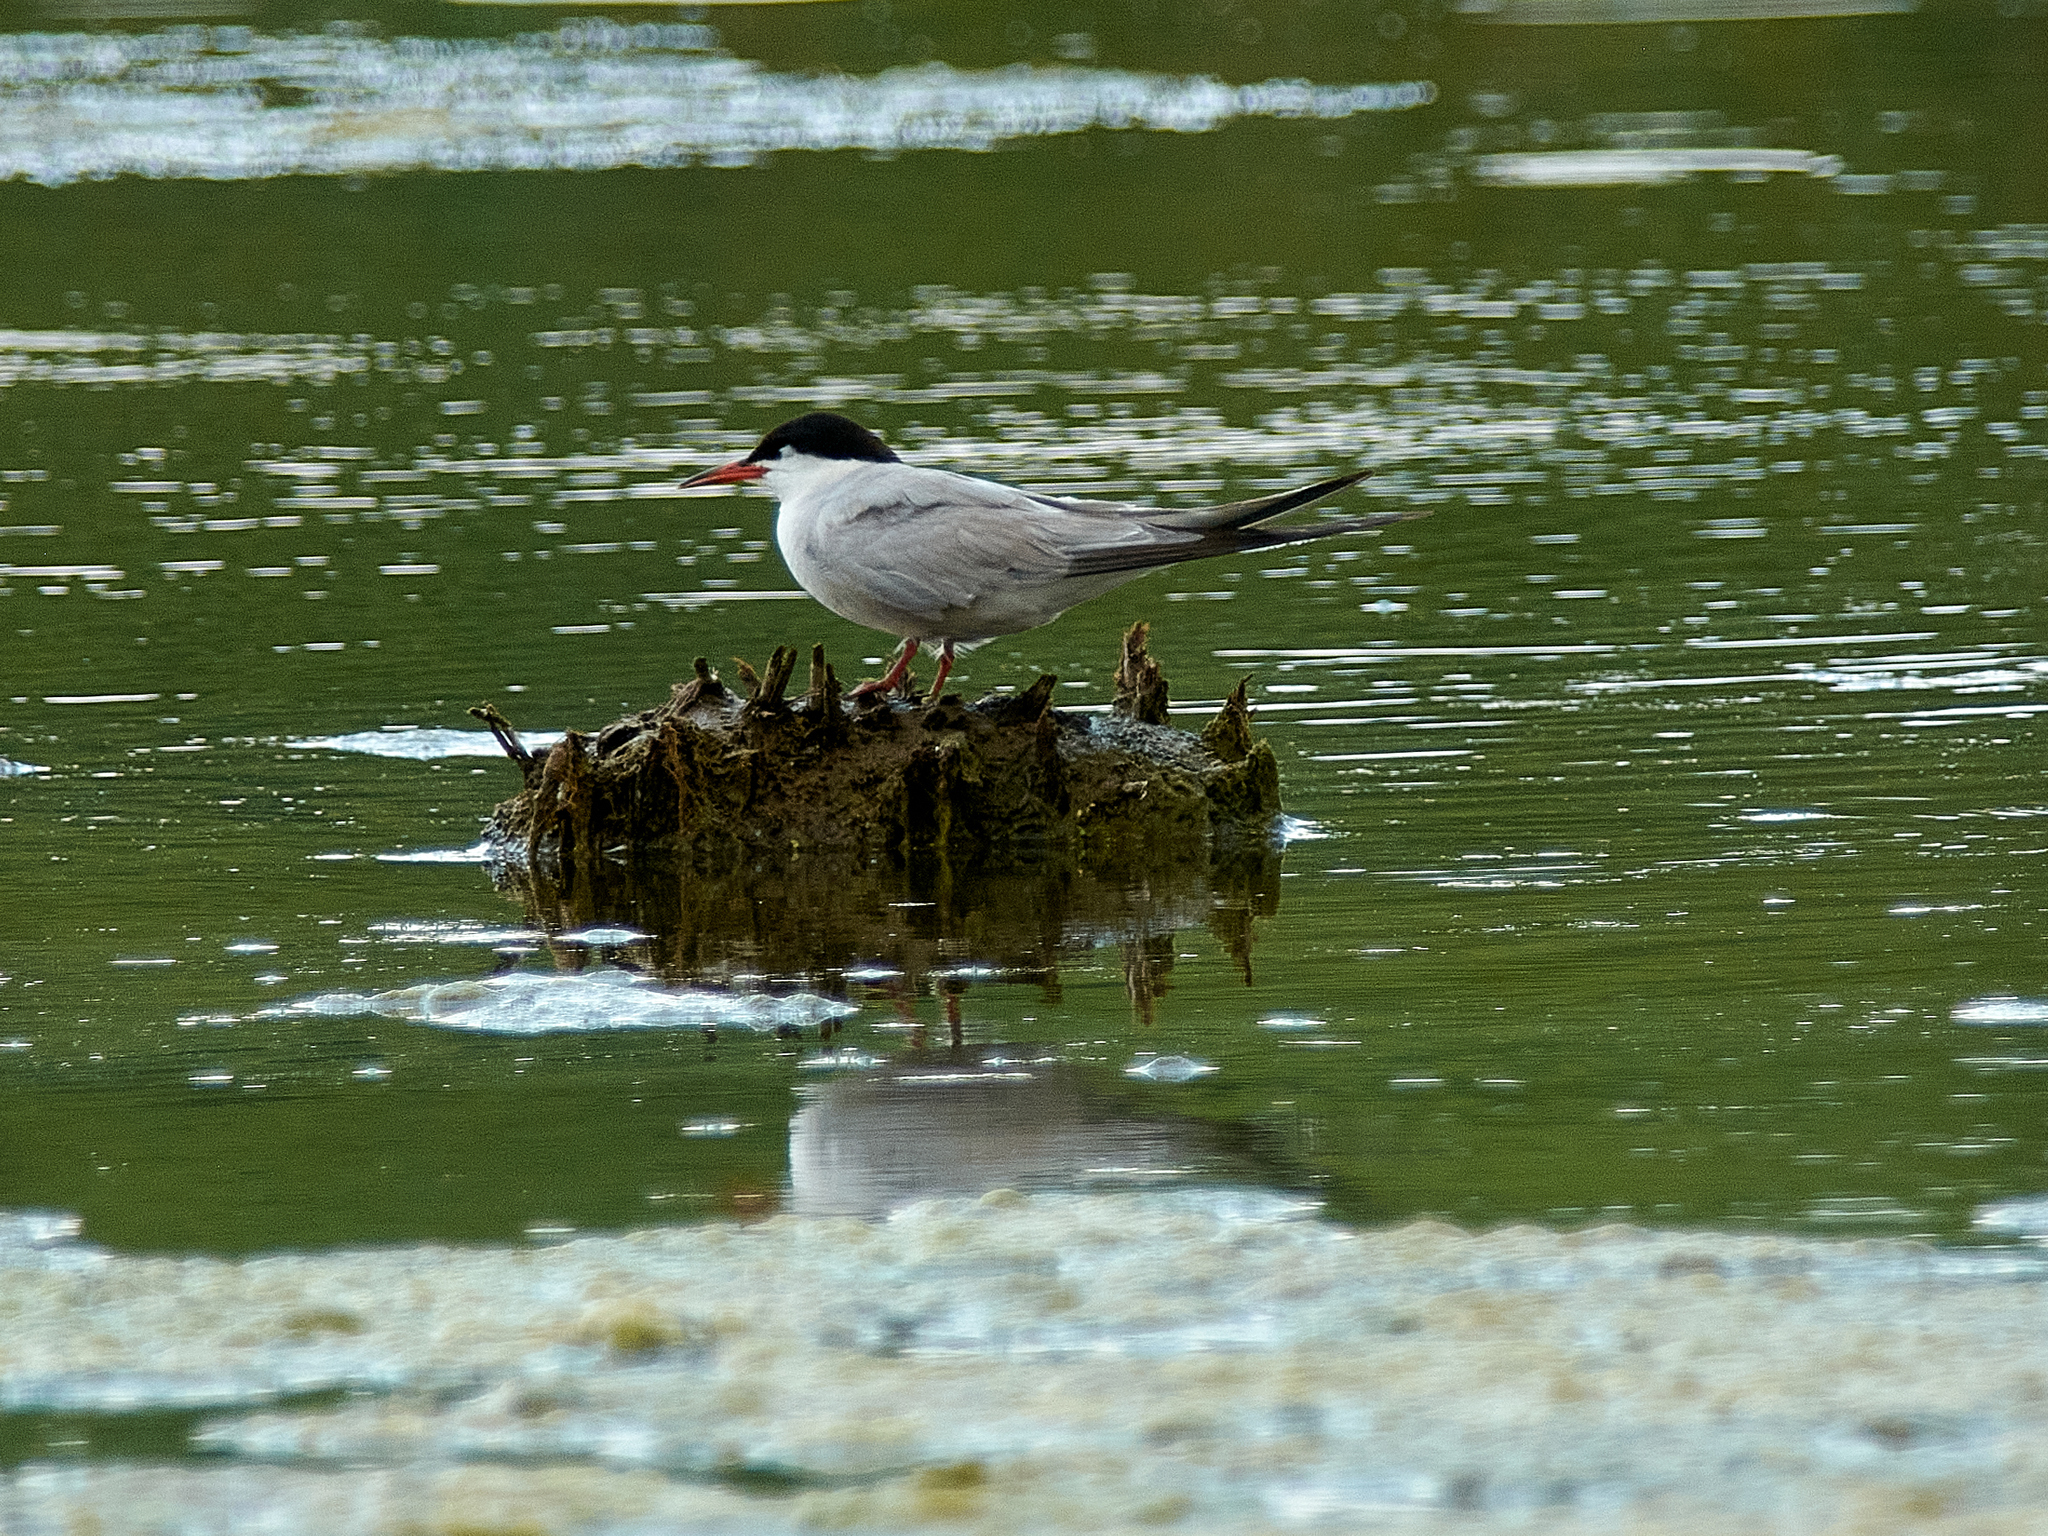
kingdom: Animalia
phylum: Chordata
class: Aves
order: Charadriiformes
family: Laridae
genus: Sterna
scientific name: Sterna hirundo
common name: Common tern
